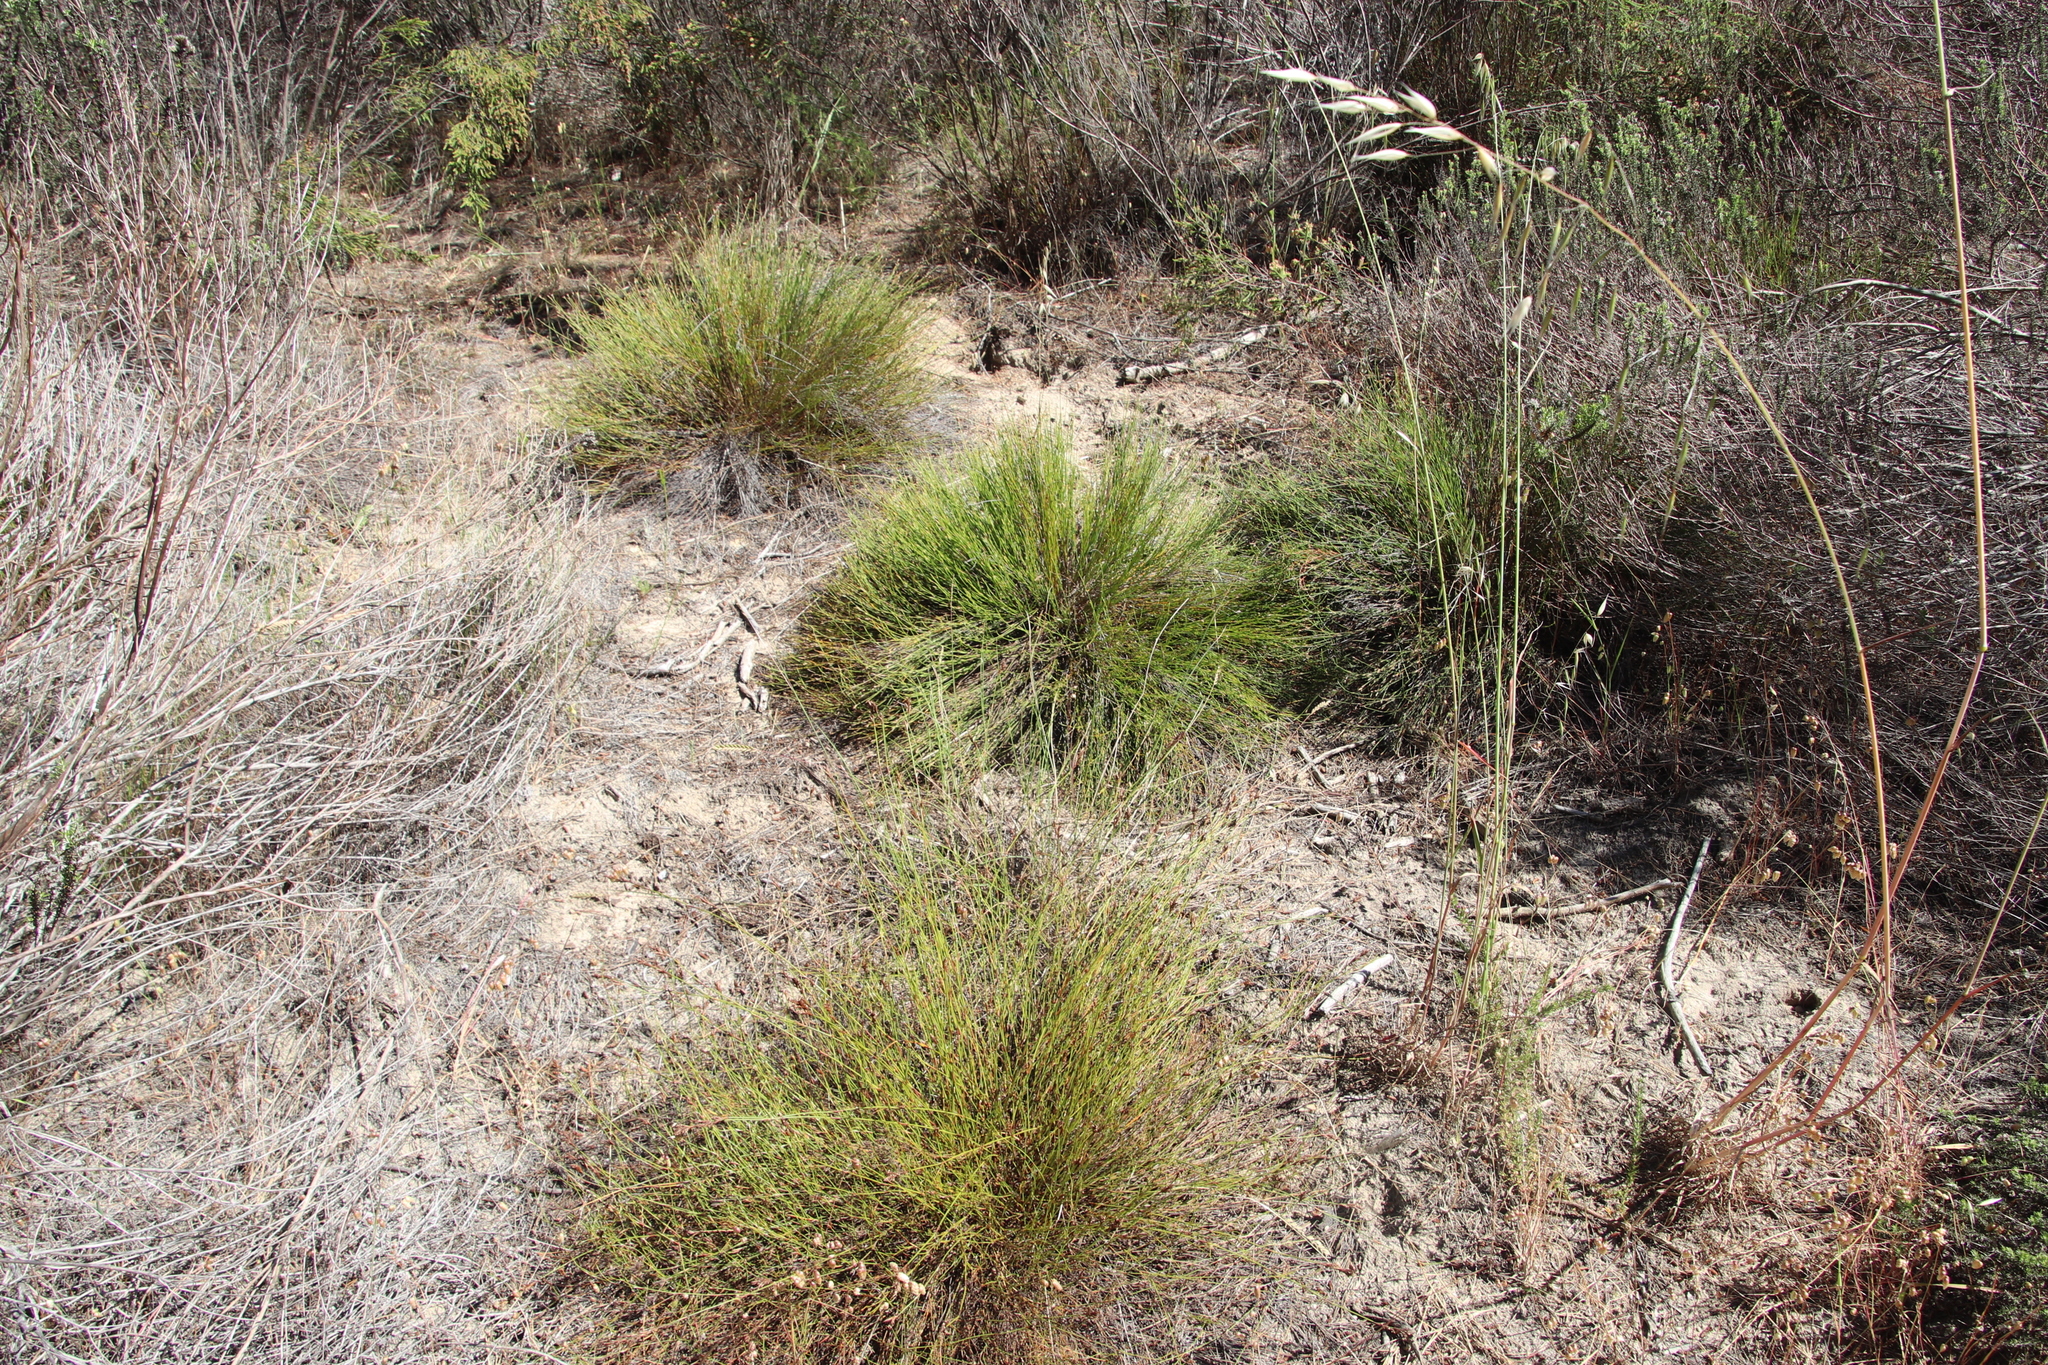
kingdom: Plantae
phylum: Tracheophyta
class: Liliopsida
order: Poales
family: Restionaceae
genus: Restio
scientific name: Restio capensis
